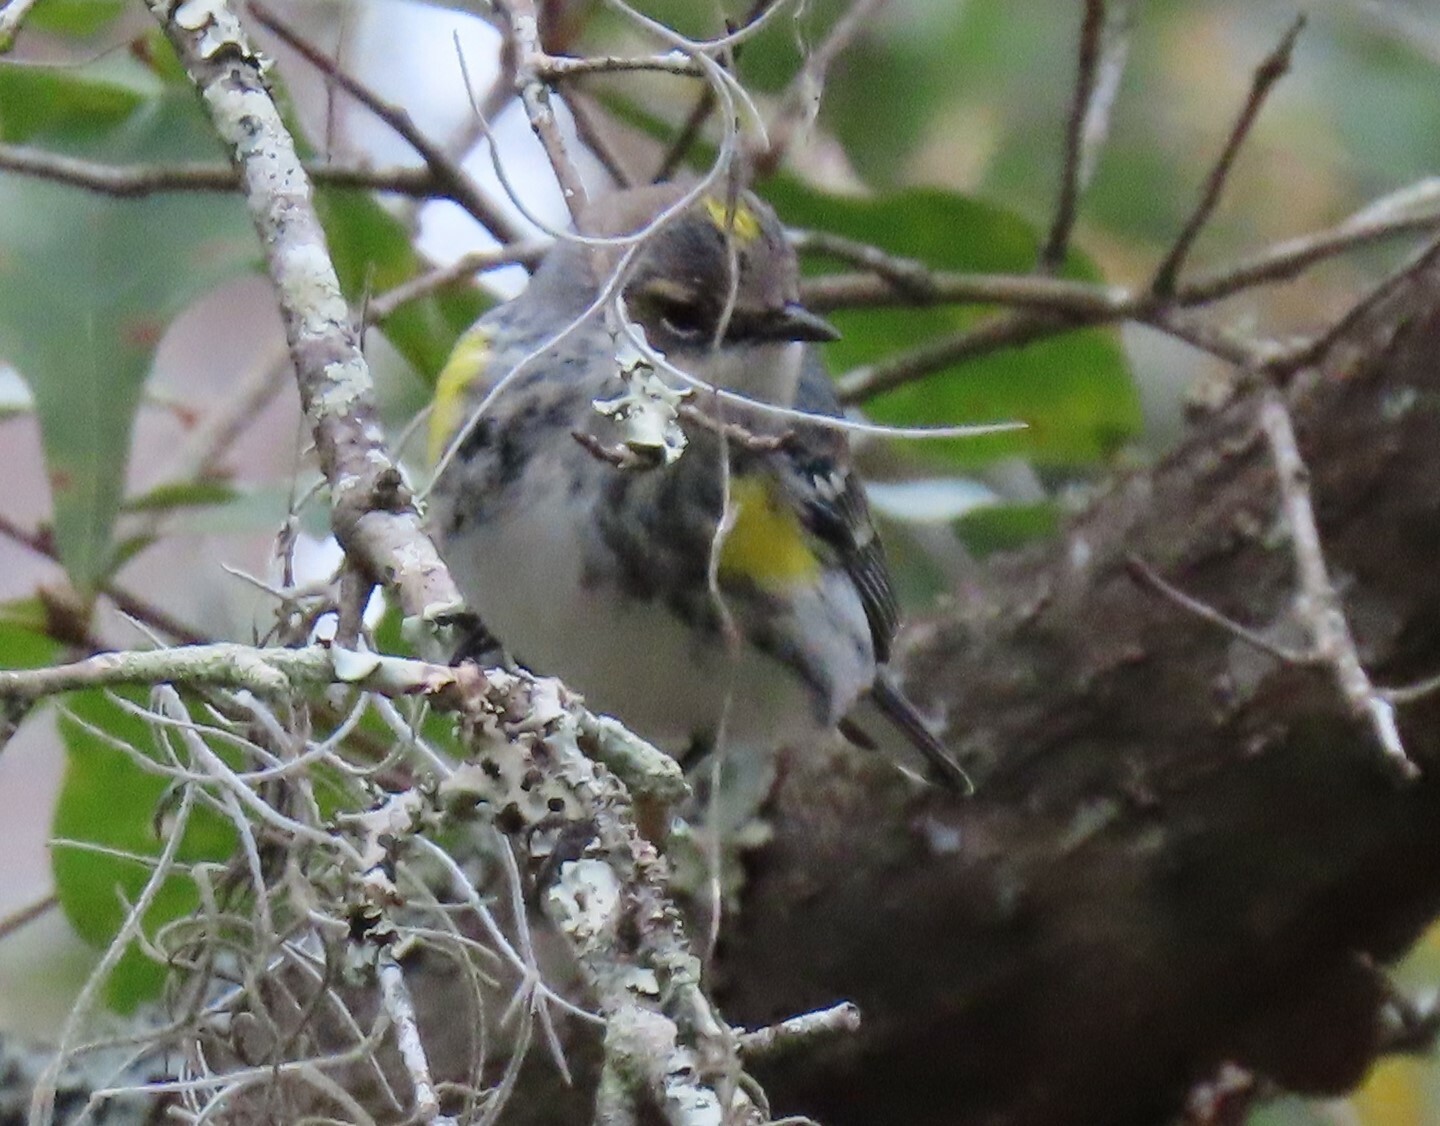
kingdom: Animalia
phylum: Chordata
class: Aves
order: Passeriformes
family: Parulidae
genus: Setophaga
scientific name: Setophaga coronata
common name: Myrtle warbler
